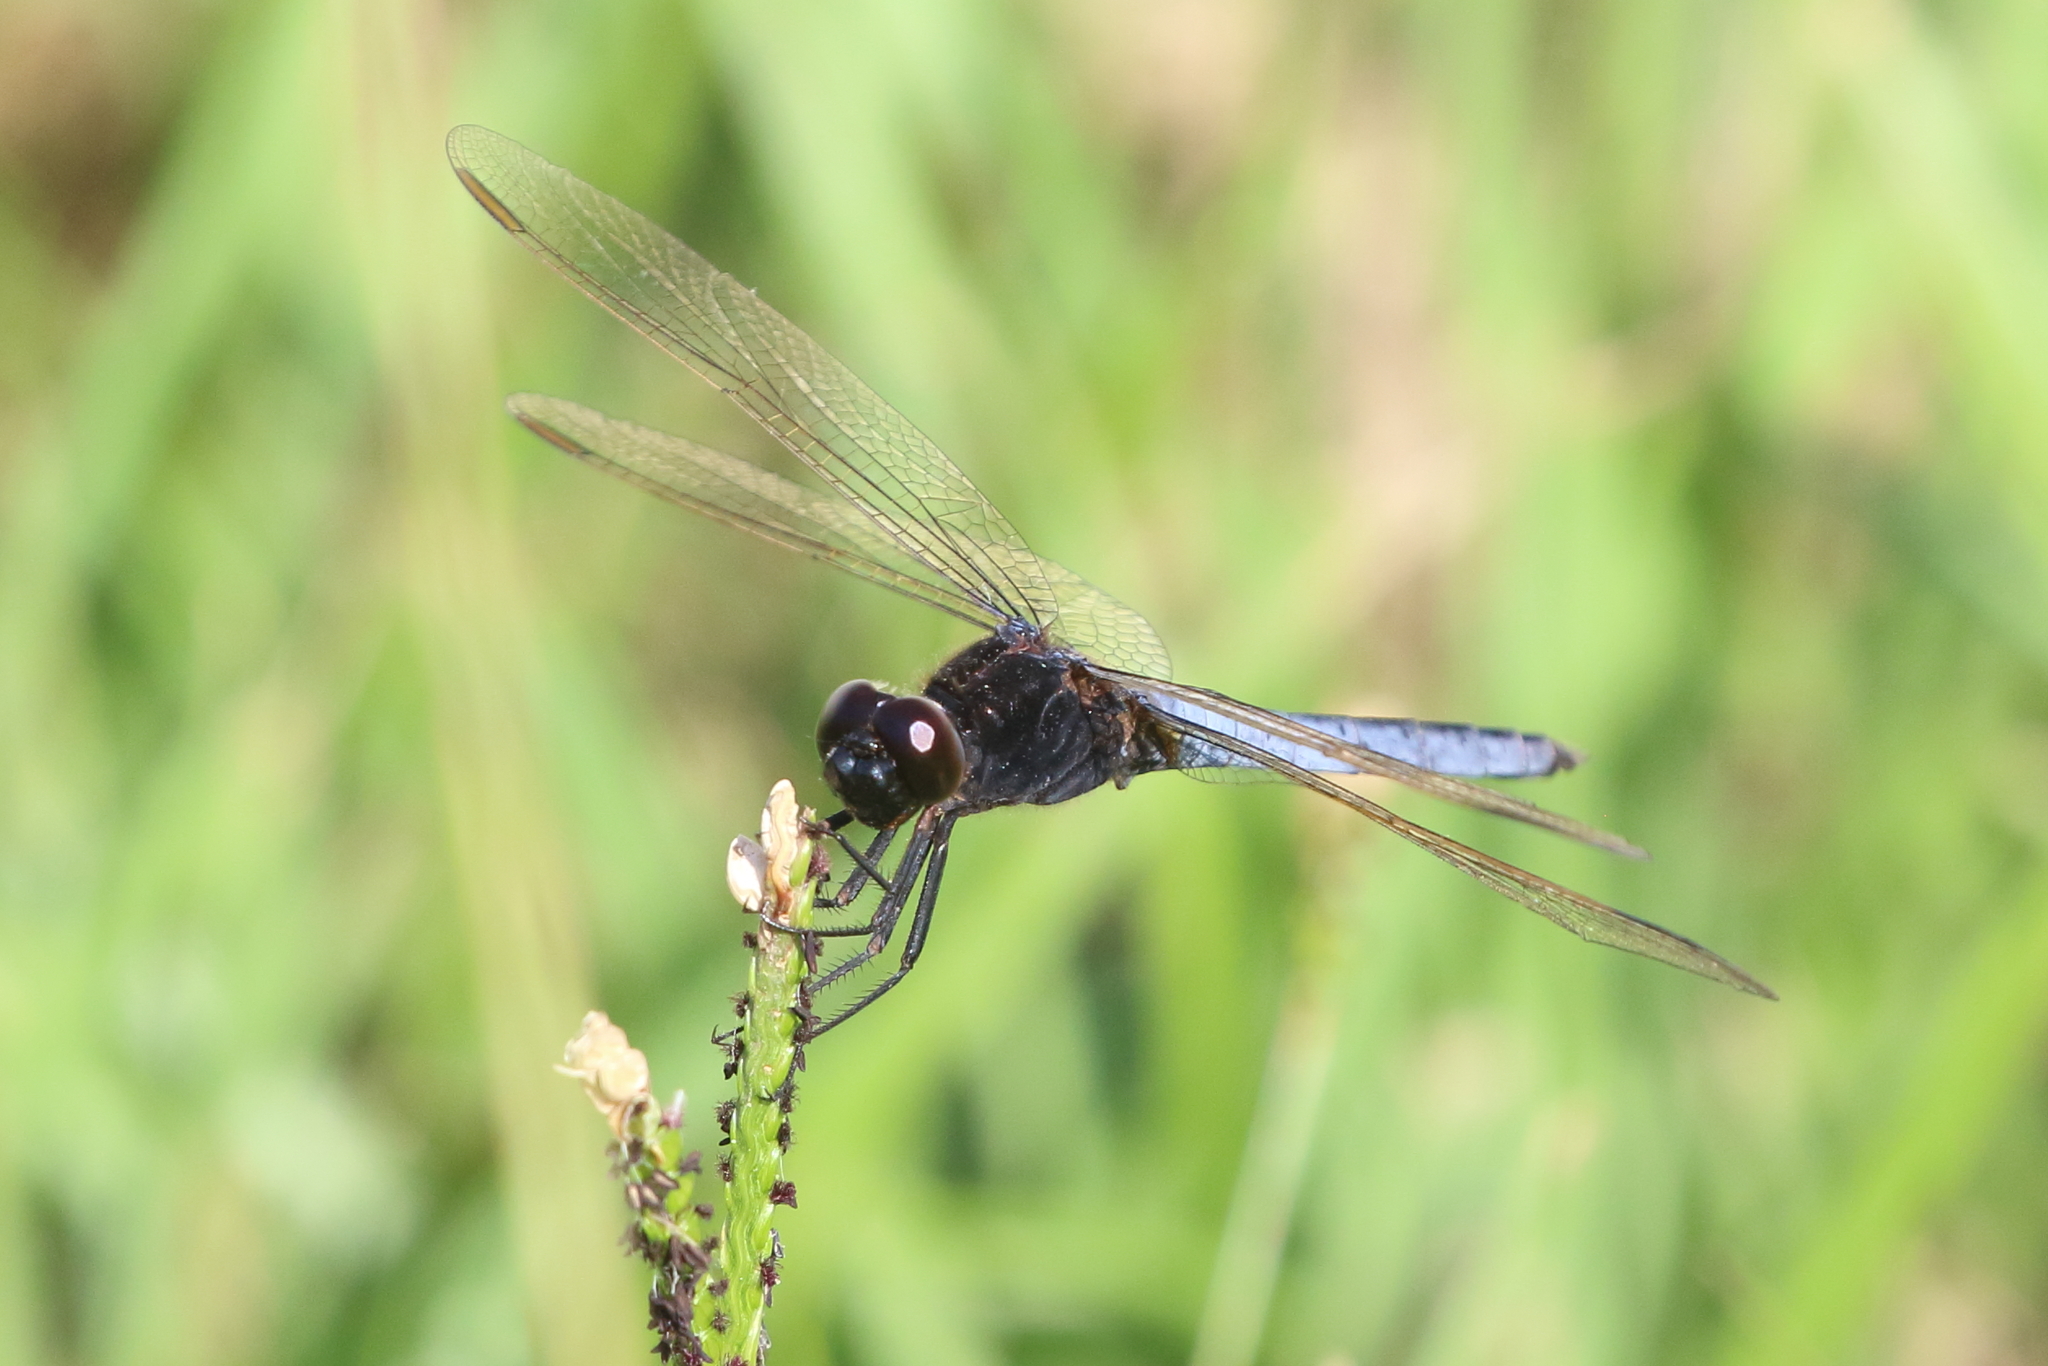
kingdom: Animalia
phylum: Arthropoda
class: Insecta
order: Odonata
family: Libellulidae
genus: Crocothemis
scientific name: Crocothemis nigrifrons
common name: Black-headed skimmer
